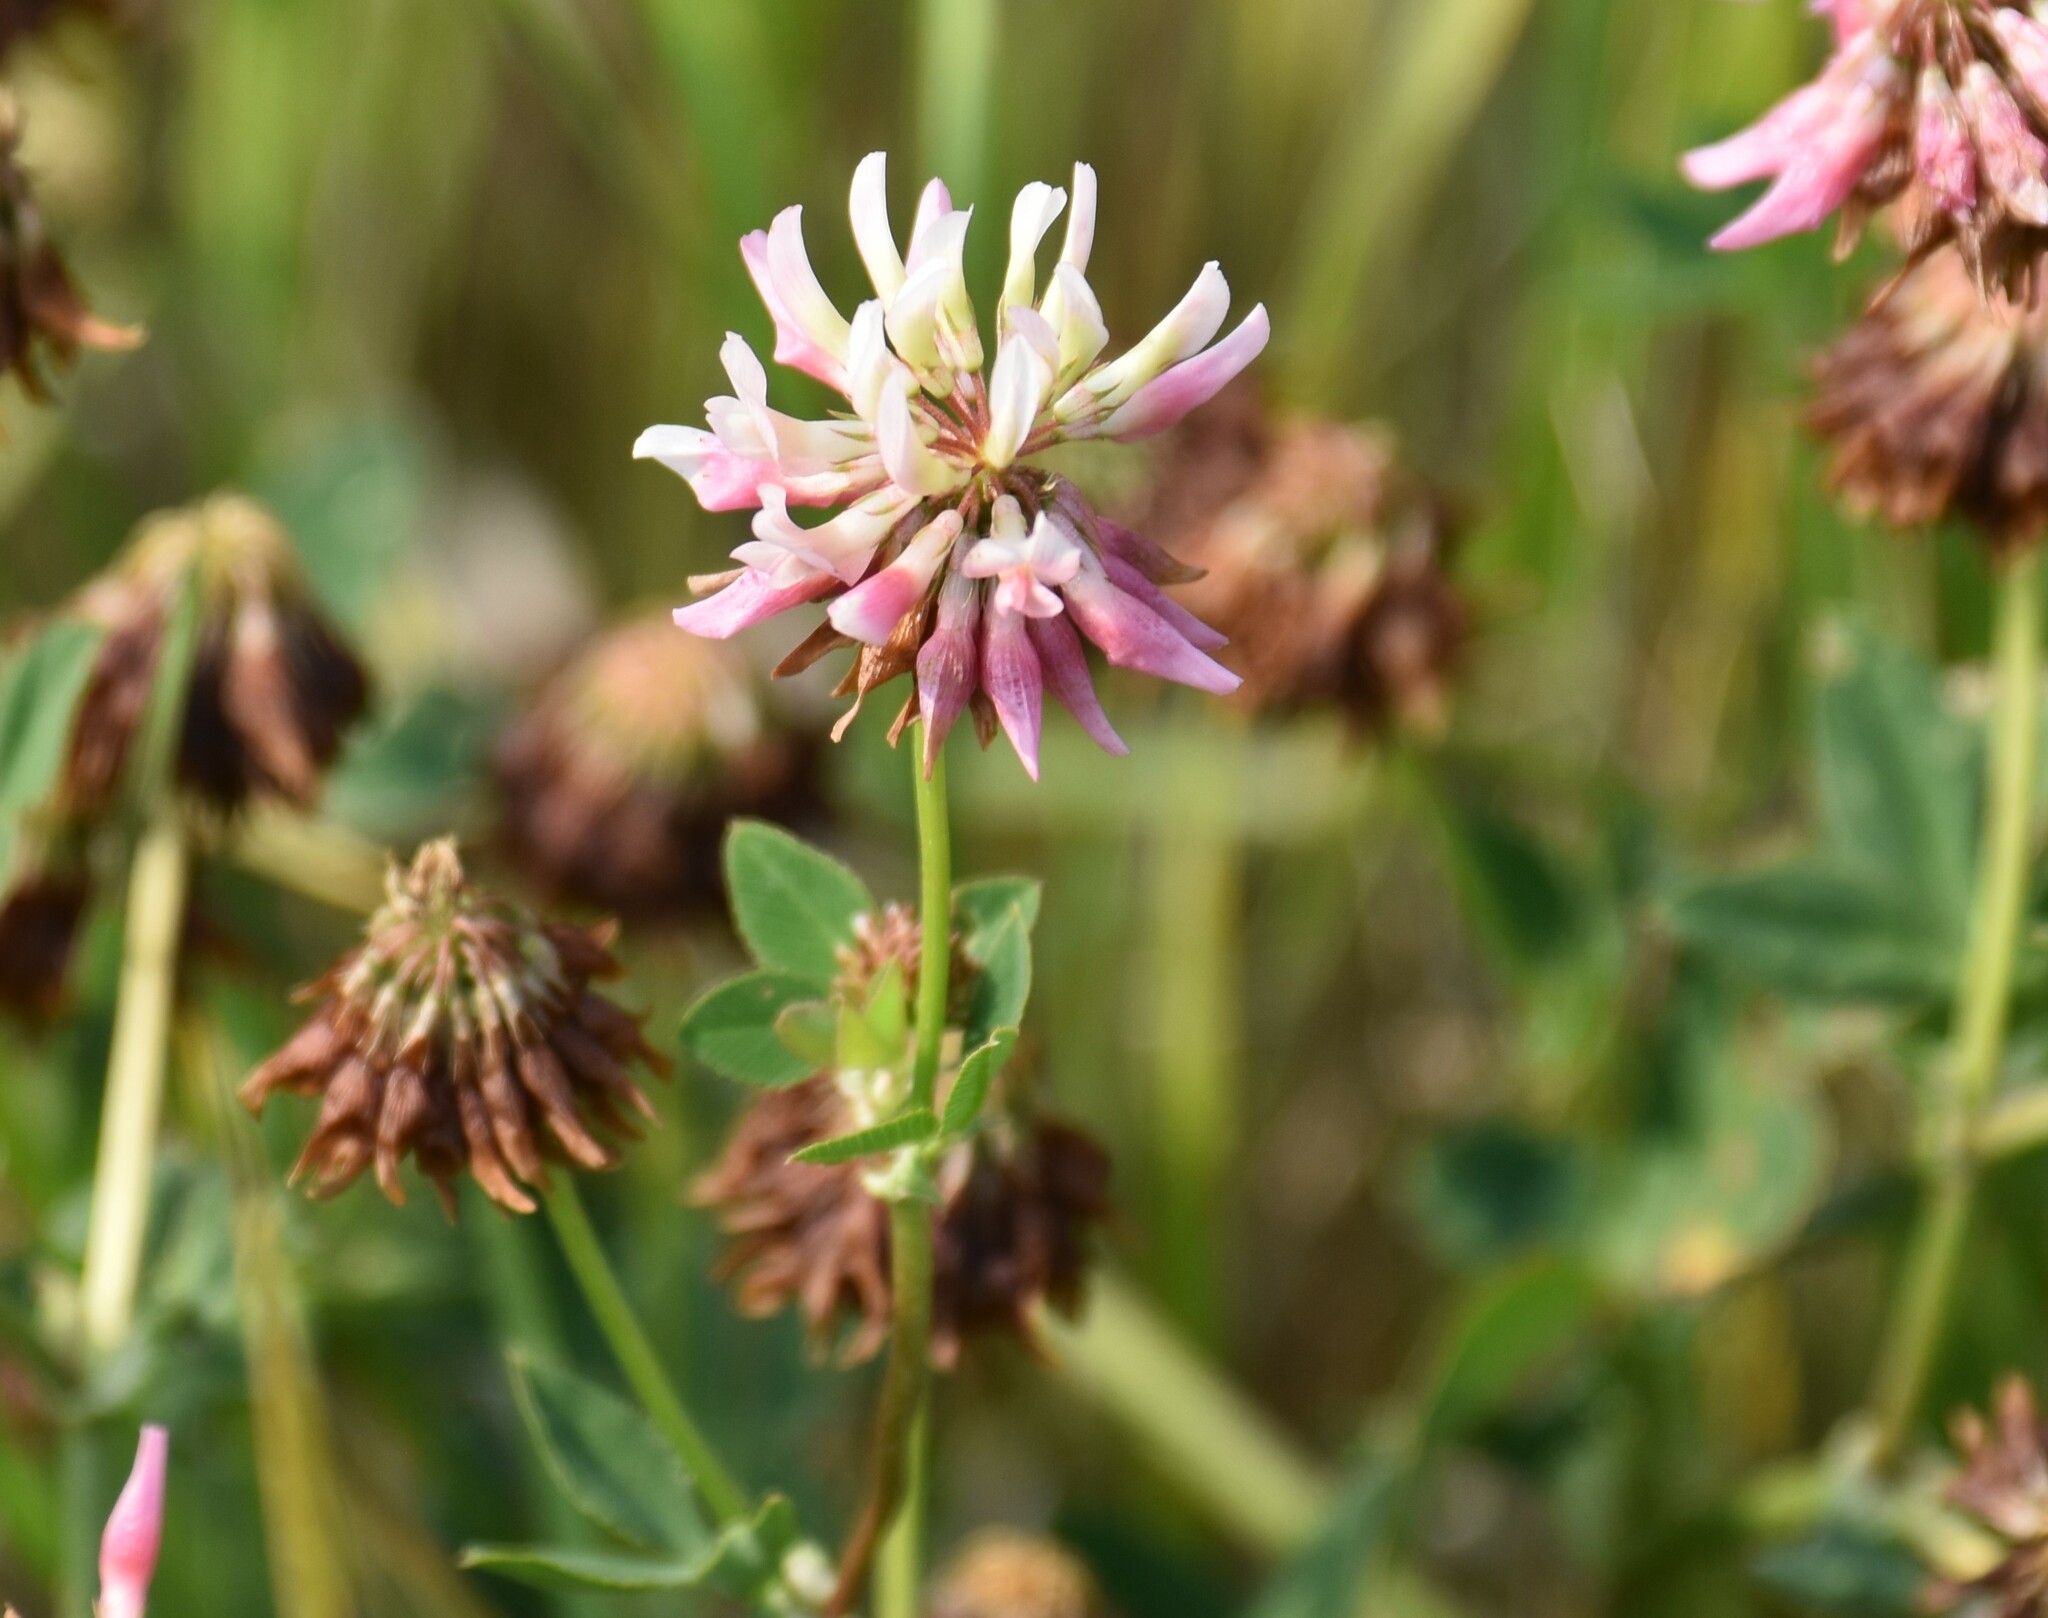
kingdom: Plantae
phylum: Tracheophyta
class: Magnoliopsida
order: Fabales
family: Fabaceae
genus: Trifolium
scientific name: Trifolium hybridum
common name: Alsike clover
